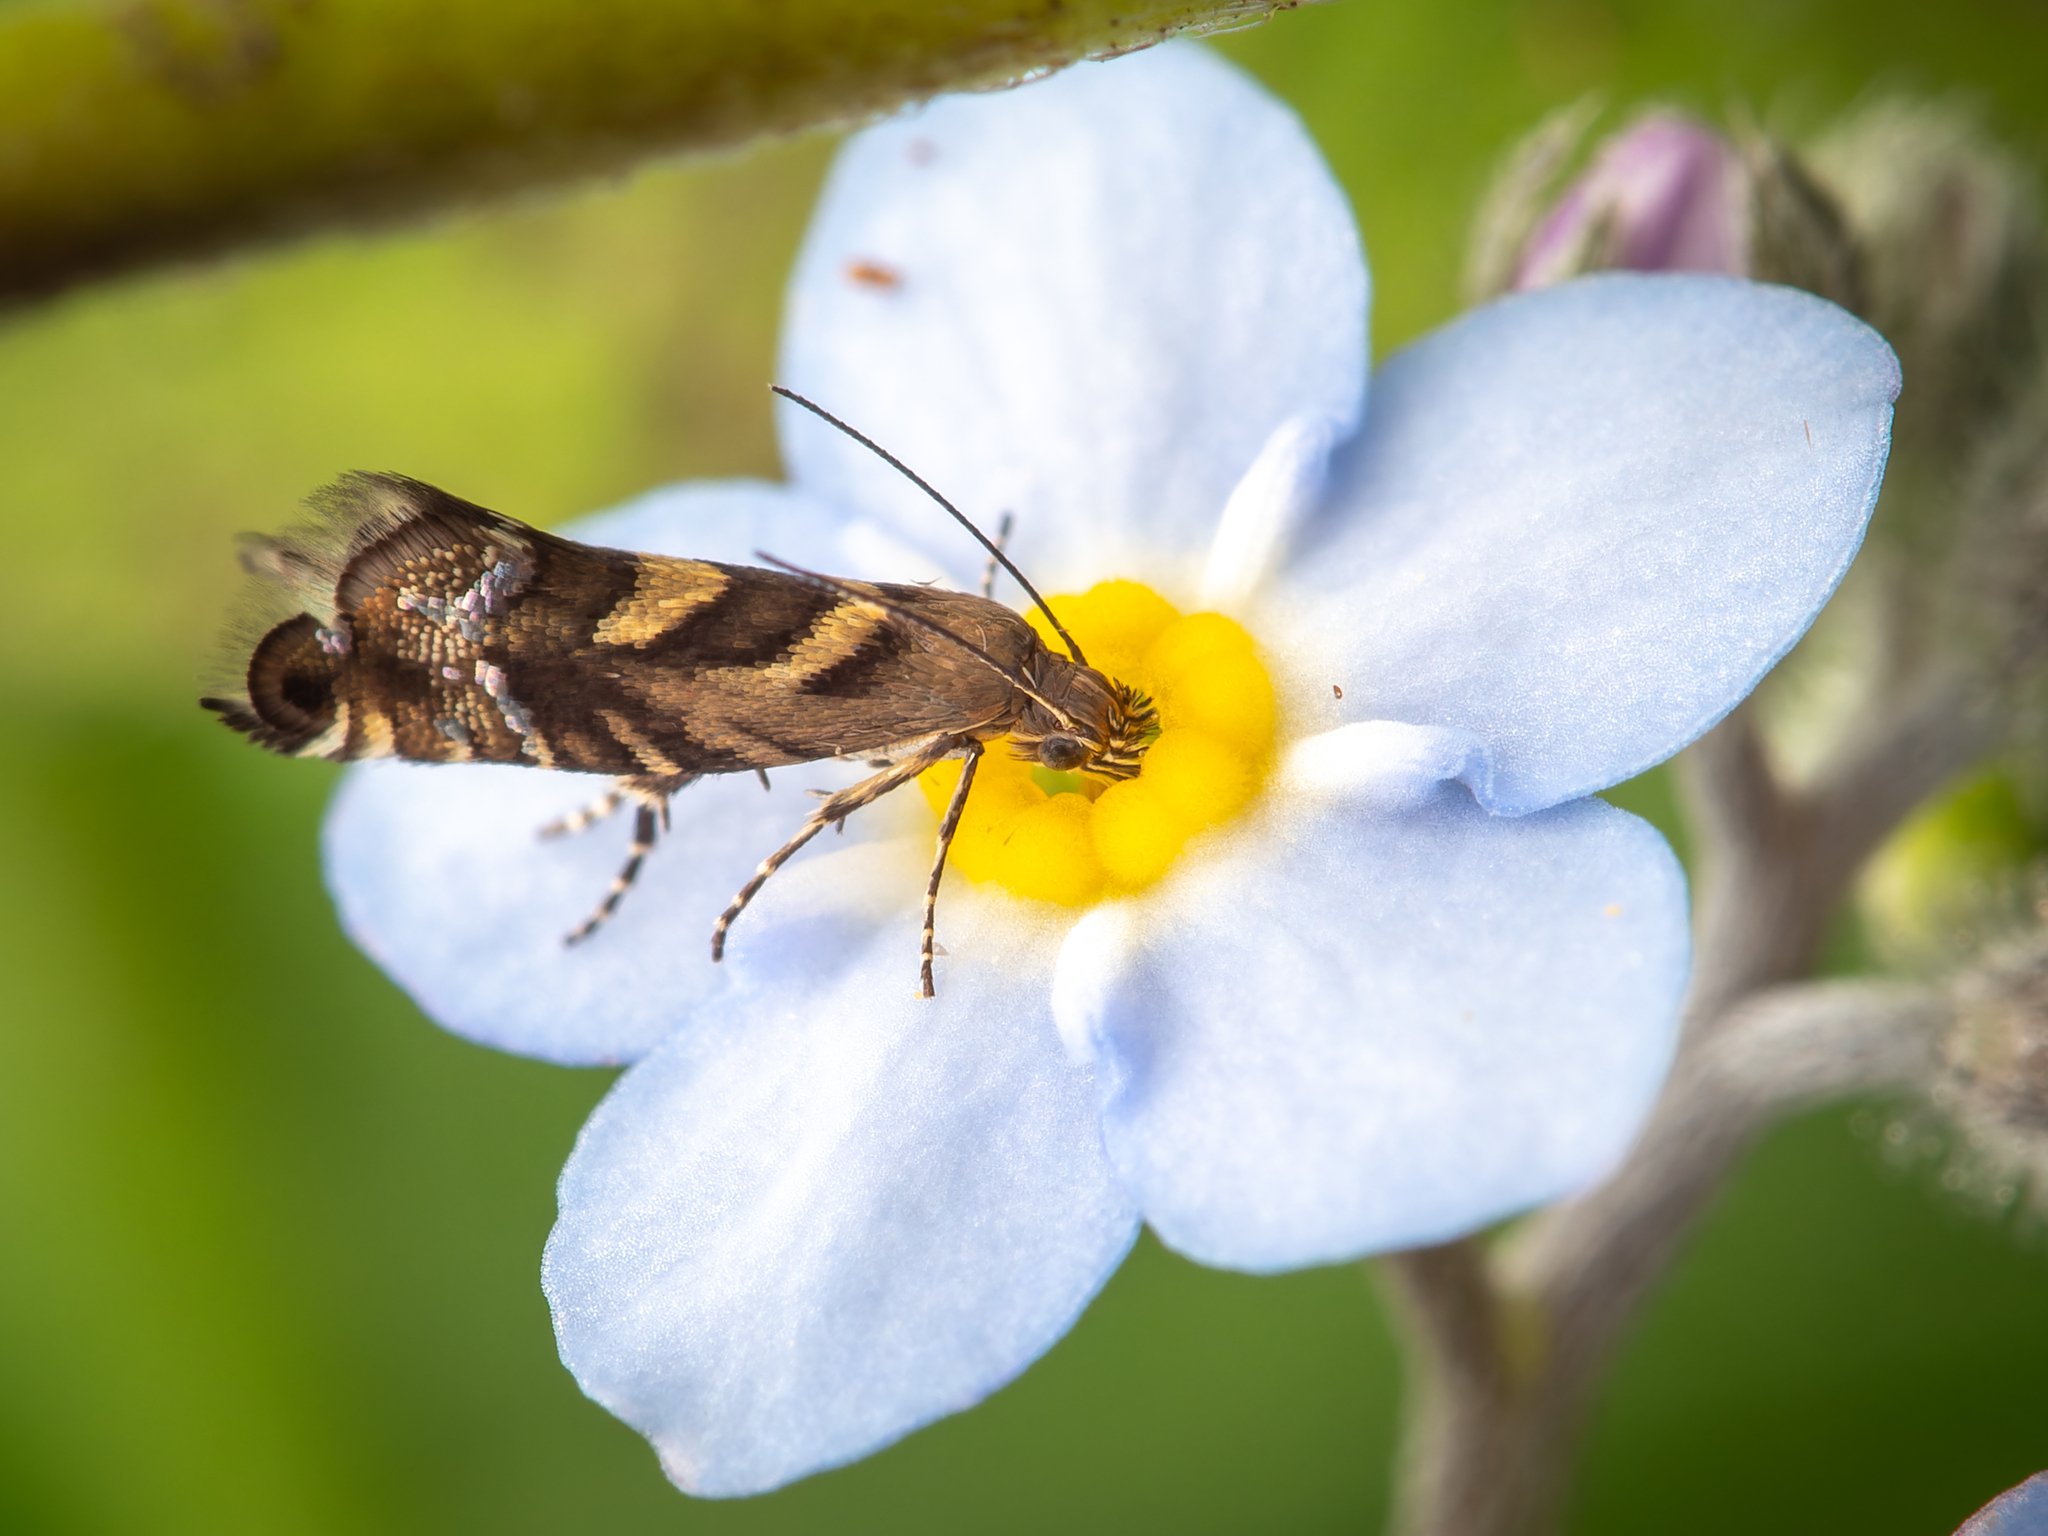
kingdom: Animalia
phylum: Arthropoda
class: Insecta
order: Lepidoptera
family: Glyphipterigidae
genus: Glyphipterix
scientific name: Glyphipterix asteronota
